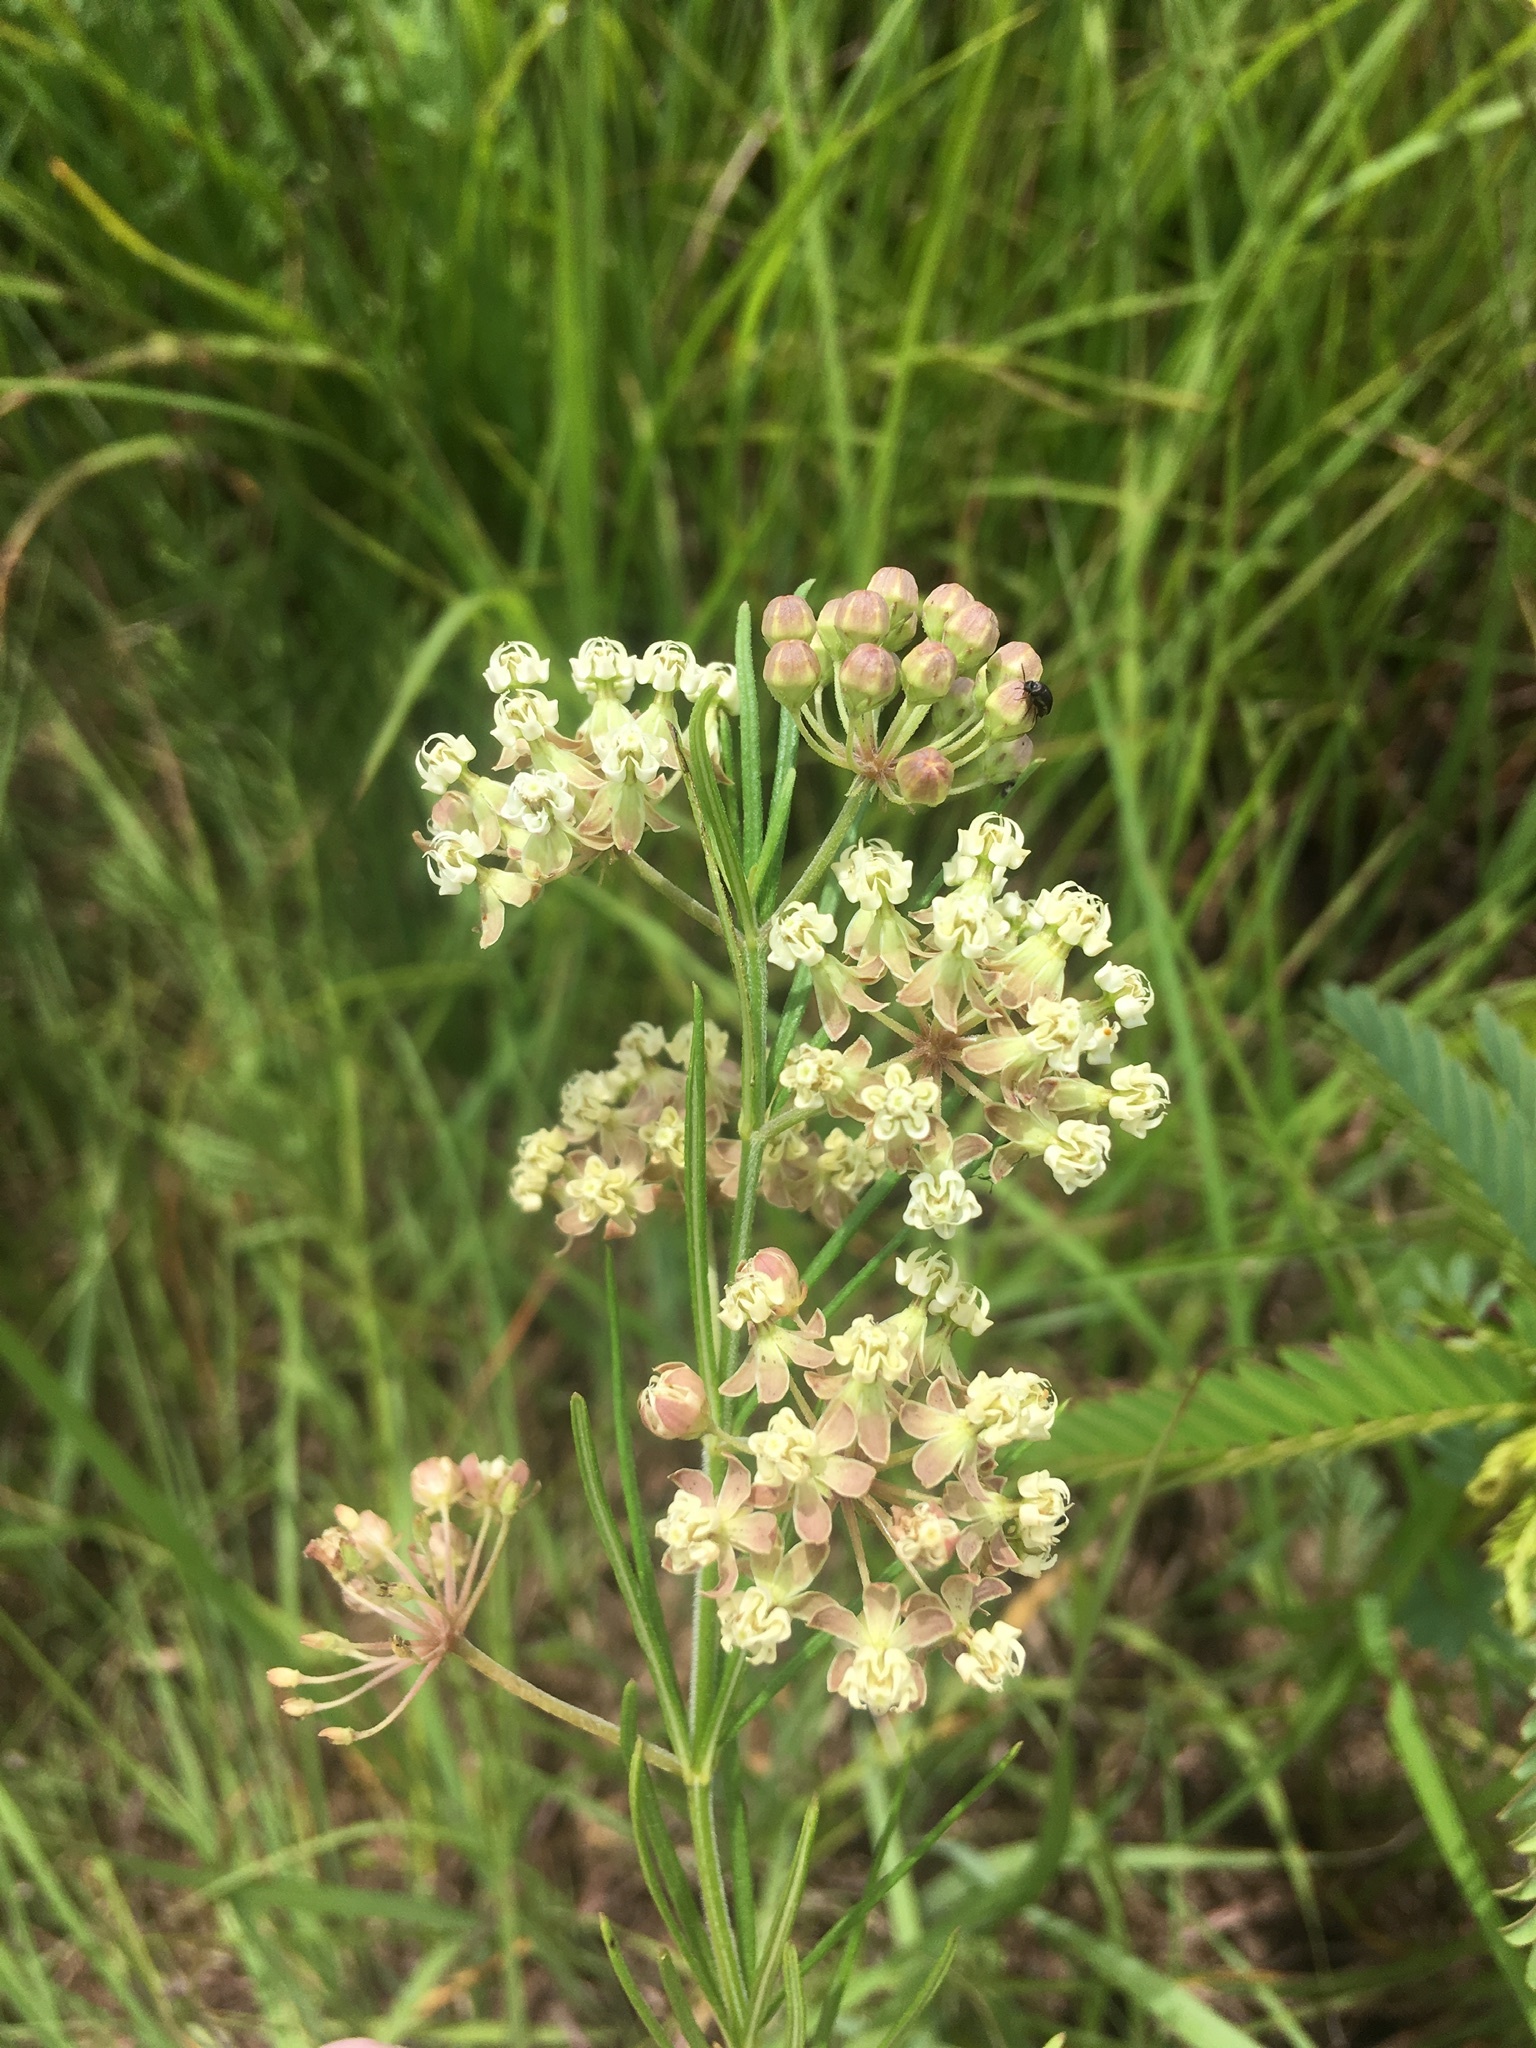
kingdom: Plantae
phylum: Tracheophyta
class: Magnoliopsida
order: Gentianales
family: Apocynaceae
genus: Asclepias
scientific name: Asclepias verticillata
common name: Eastern whorled milkweed
